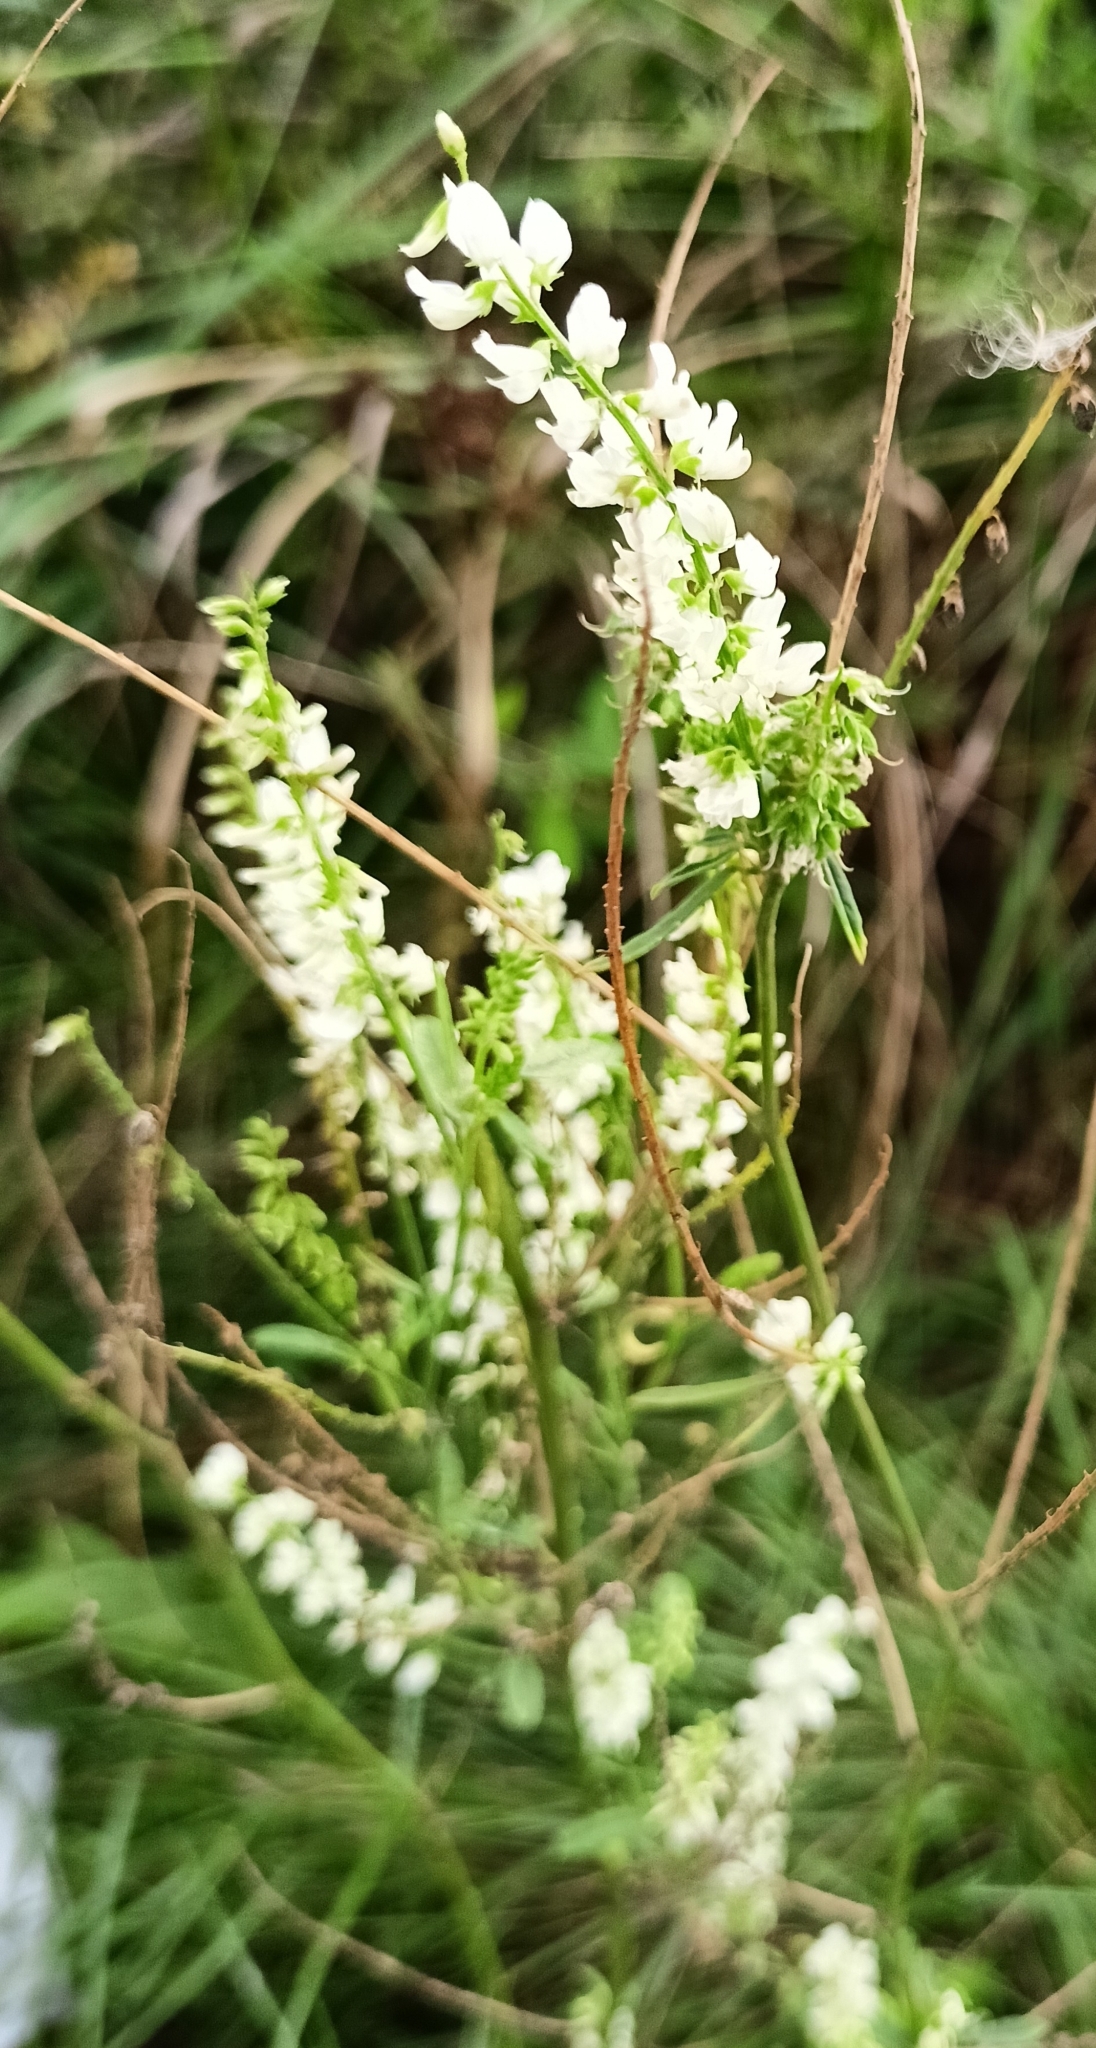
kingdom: Plantae
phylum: Tracheophyta
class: Magnoliopsida
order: Fabales
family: Fabaceae
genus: Melilotus
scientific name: Melilotus albus
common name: White melilot
